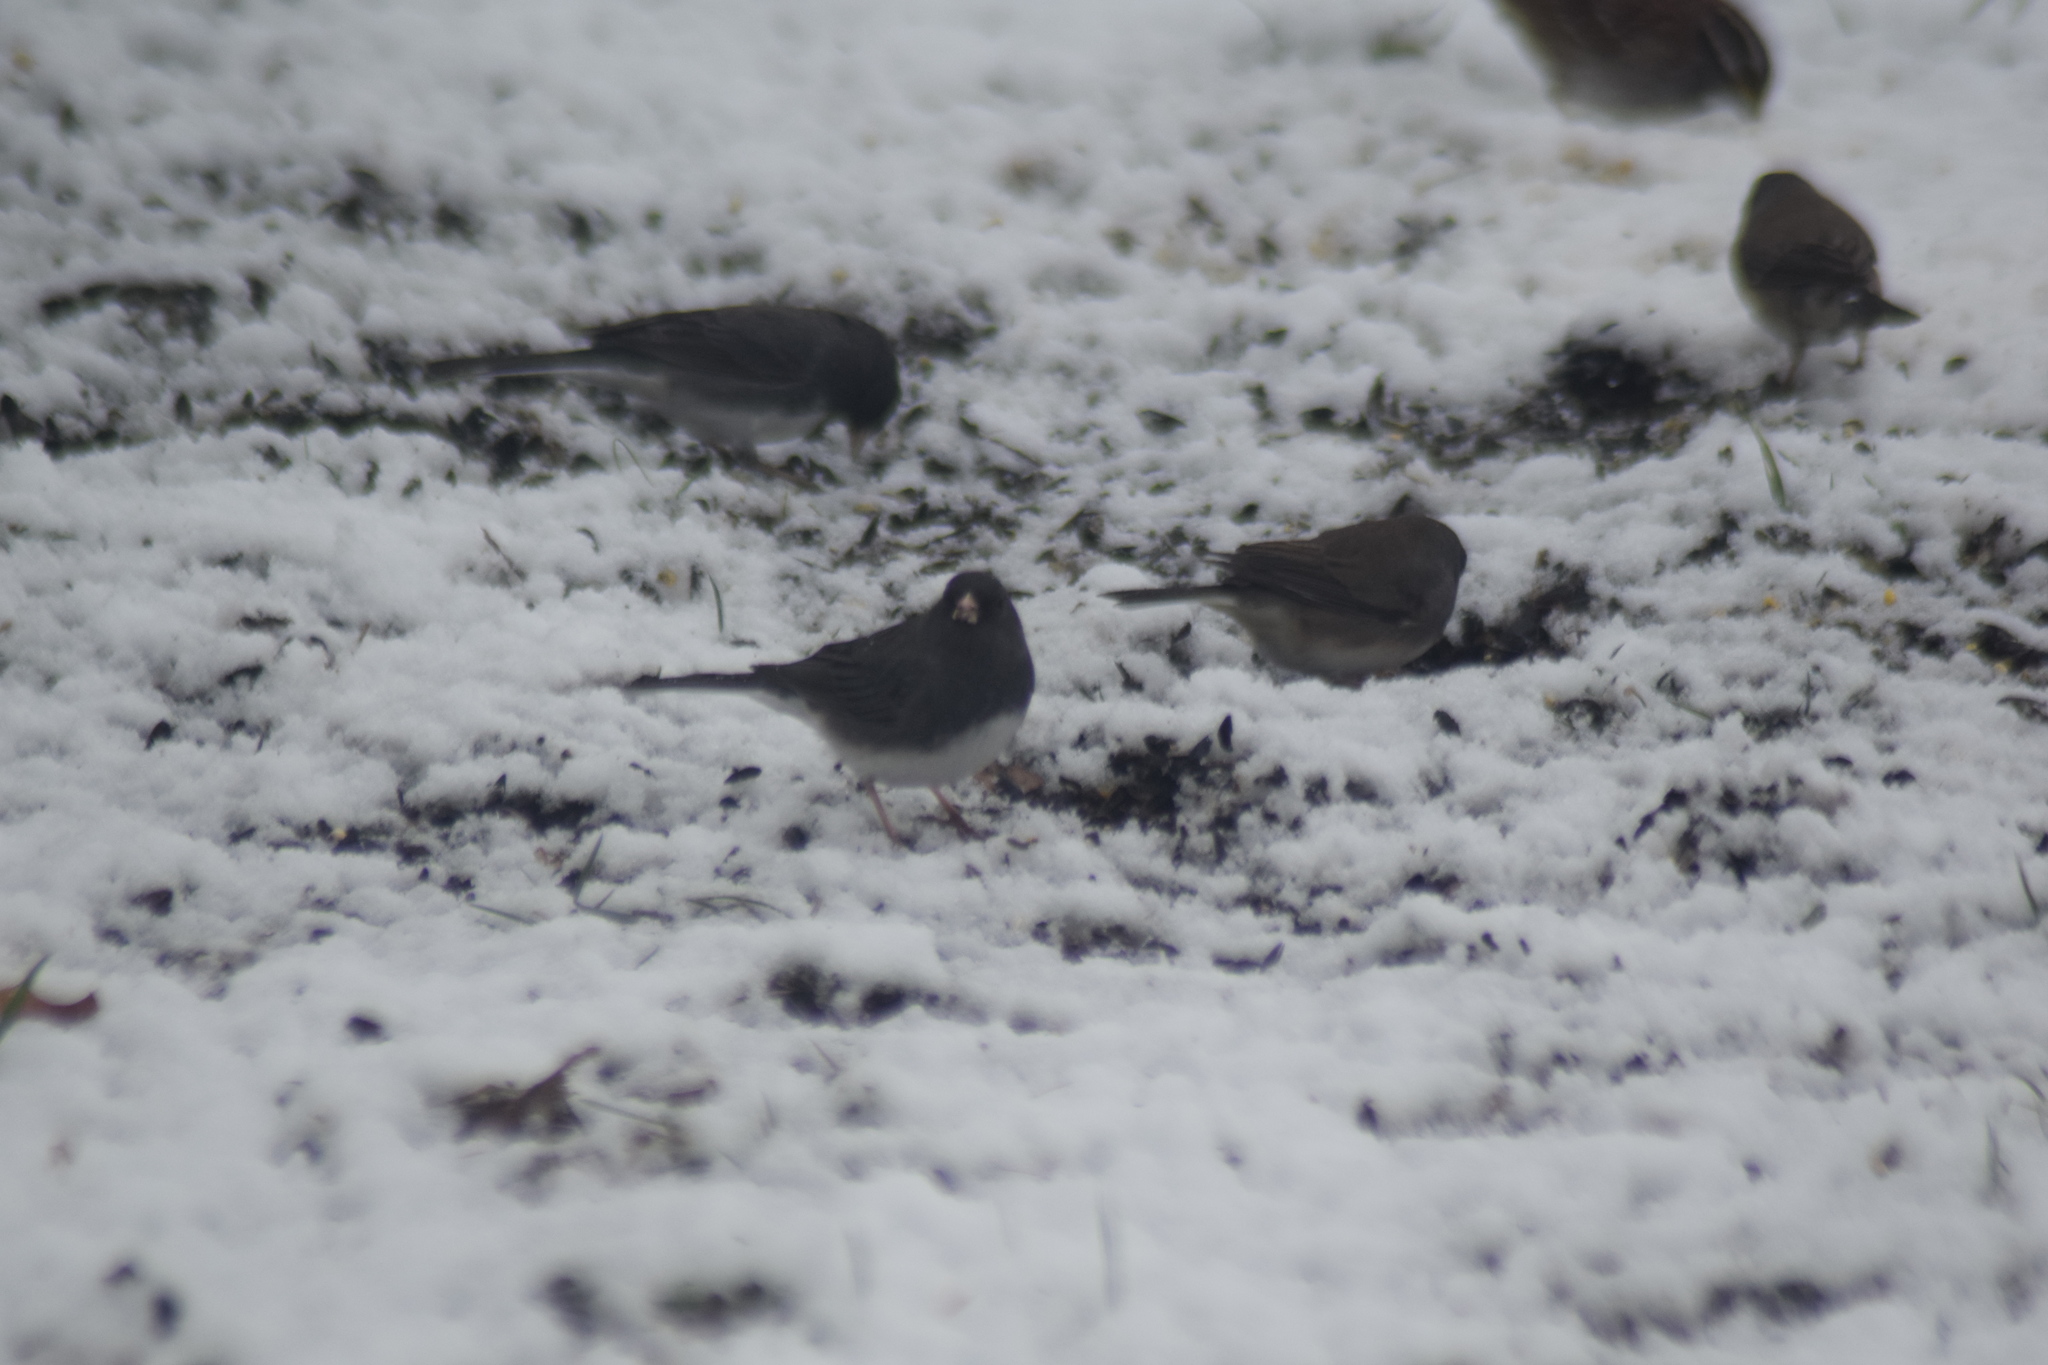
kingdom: Animalia
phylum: Chordata
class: Aves
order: Passeriformes
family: Passerellidae
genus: Junco
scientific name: Junco hyemalis
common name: Dark-eyed junco
